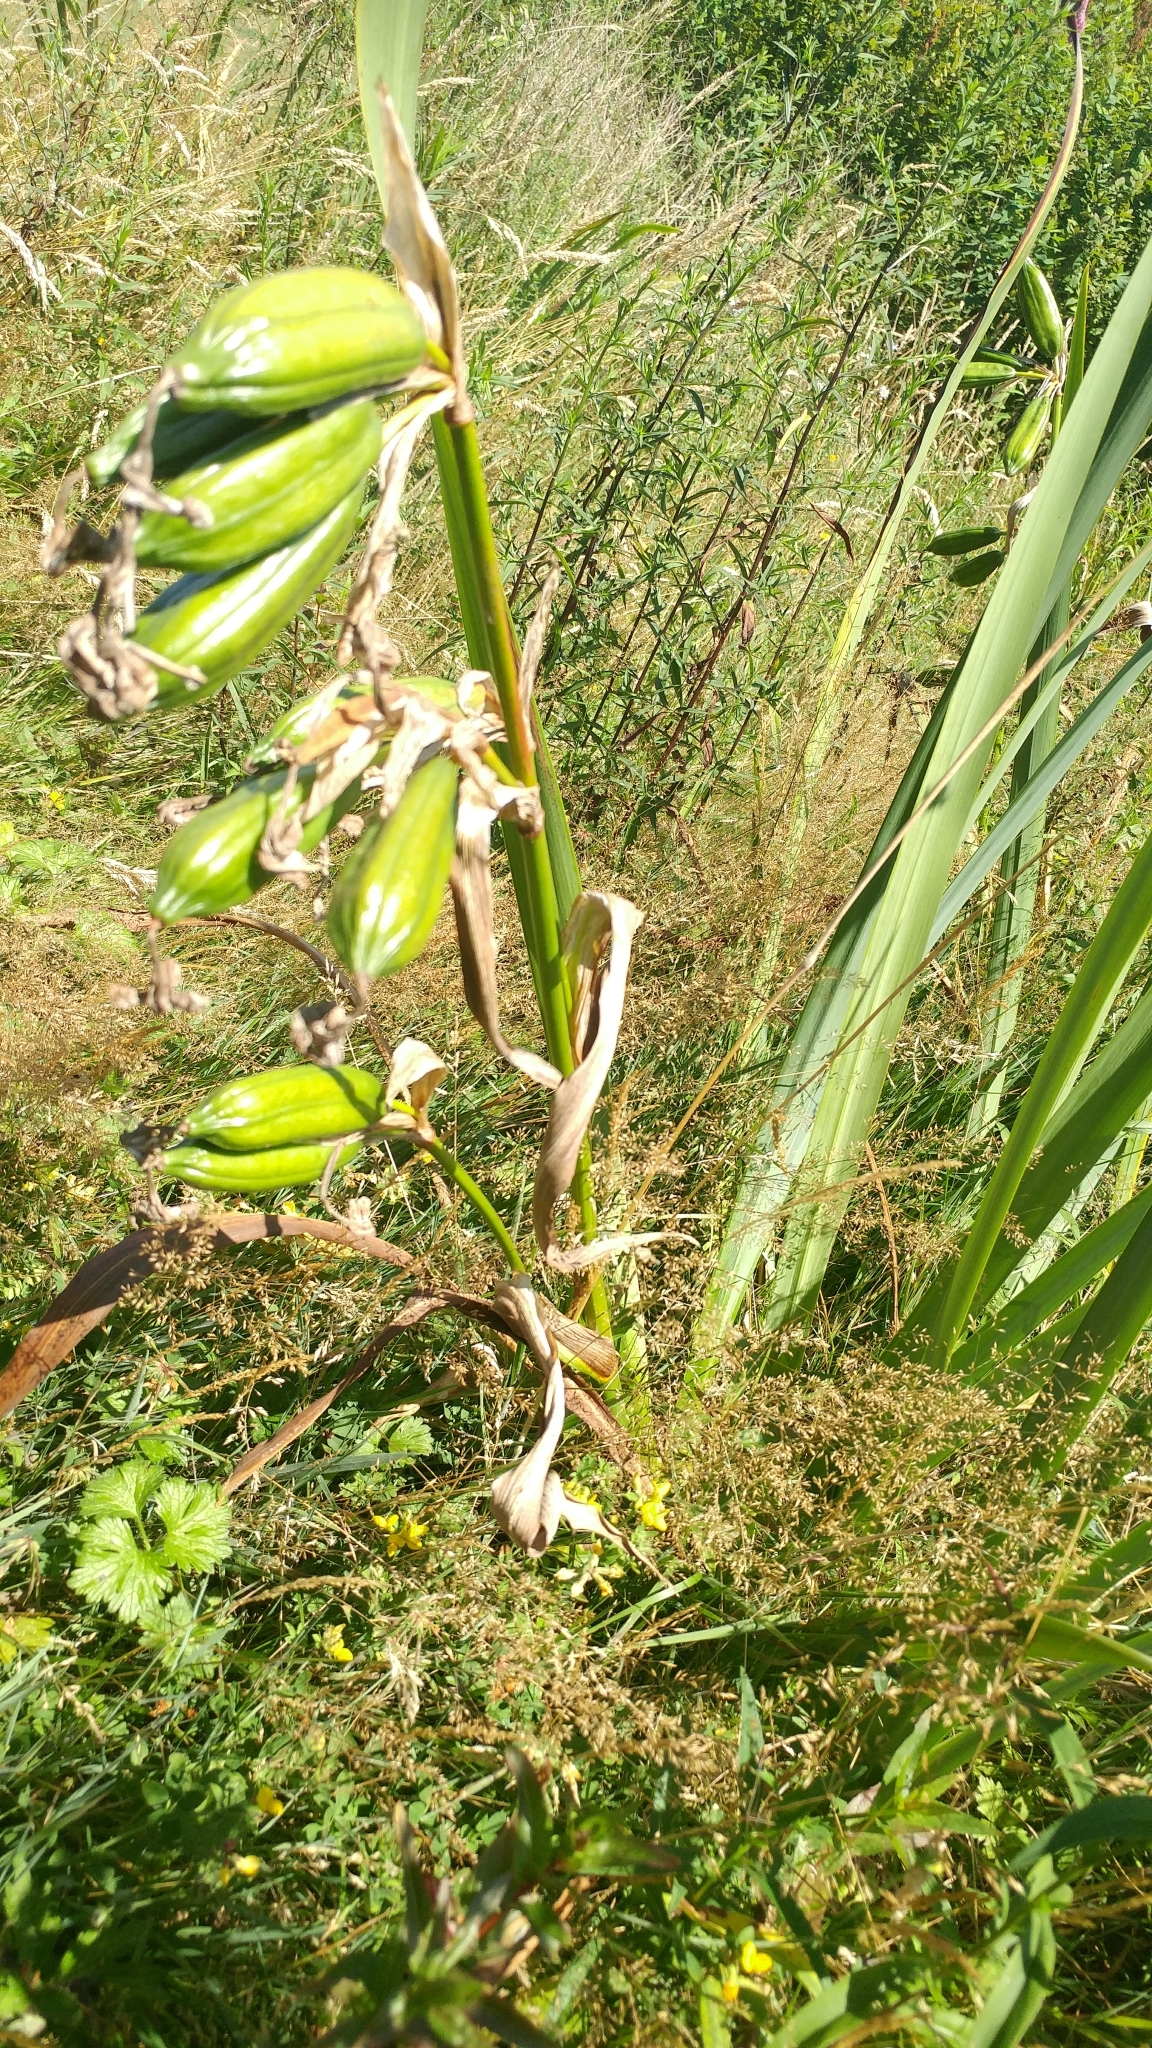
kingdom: Plantae
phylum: Tracheophyta
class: Liliopsida
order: Asparagales
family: Iridaceae
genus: Iris
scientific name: Iris pseudacorus
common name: Yellow flag
